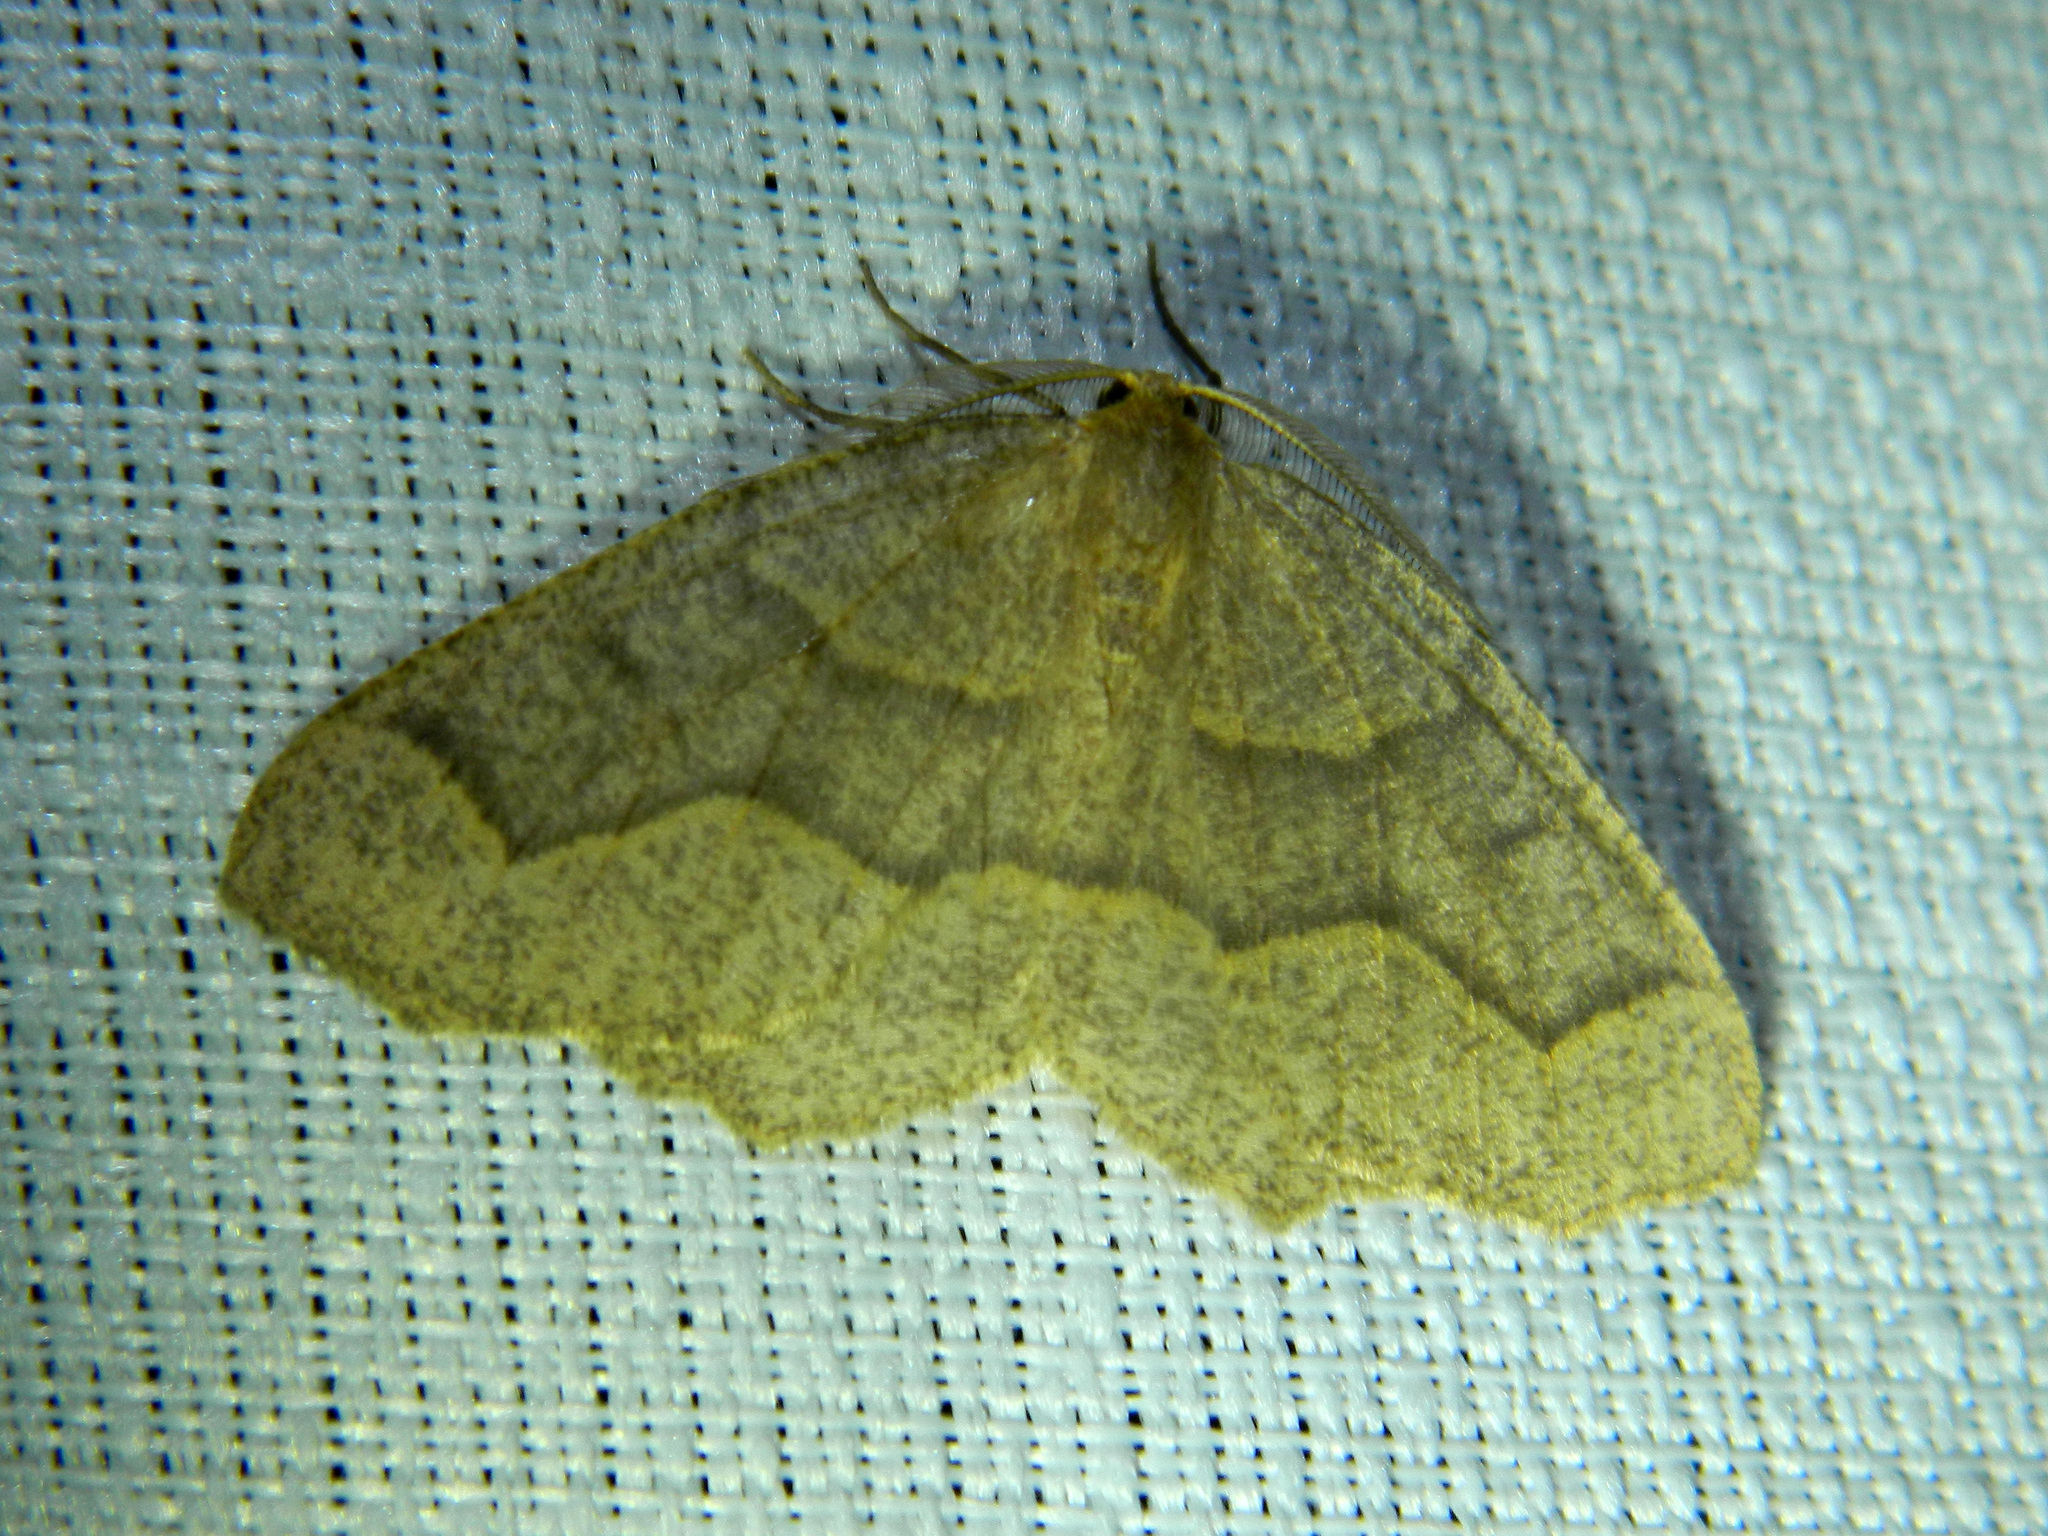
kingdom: Animalia
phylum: Arthropoda
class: Insecta
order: Lepidoptera
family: Geometridae
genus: Lambdina
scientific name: Lambdina fiscellaria
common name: Hemlock looper
